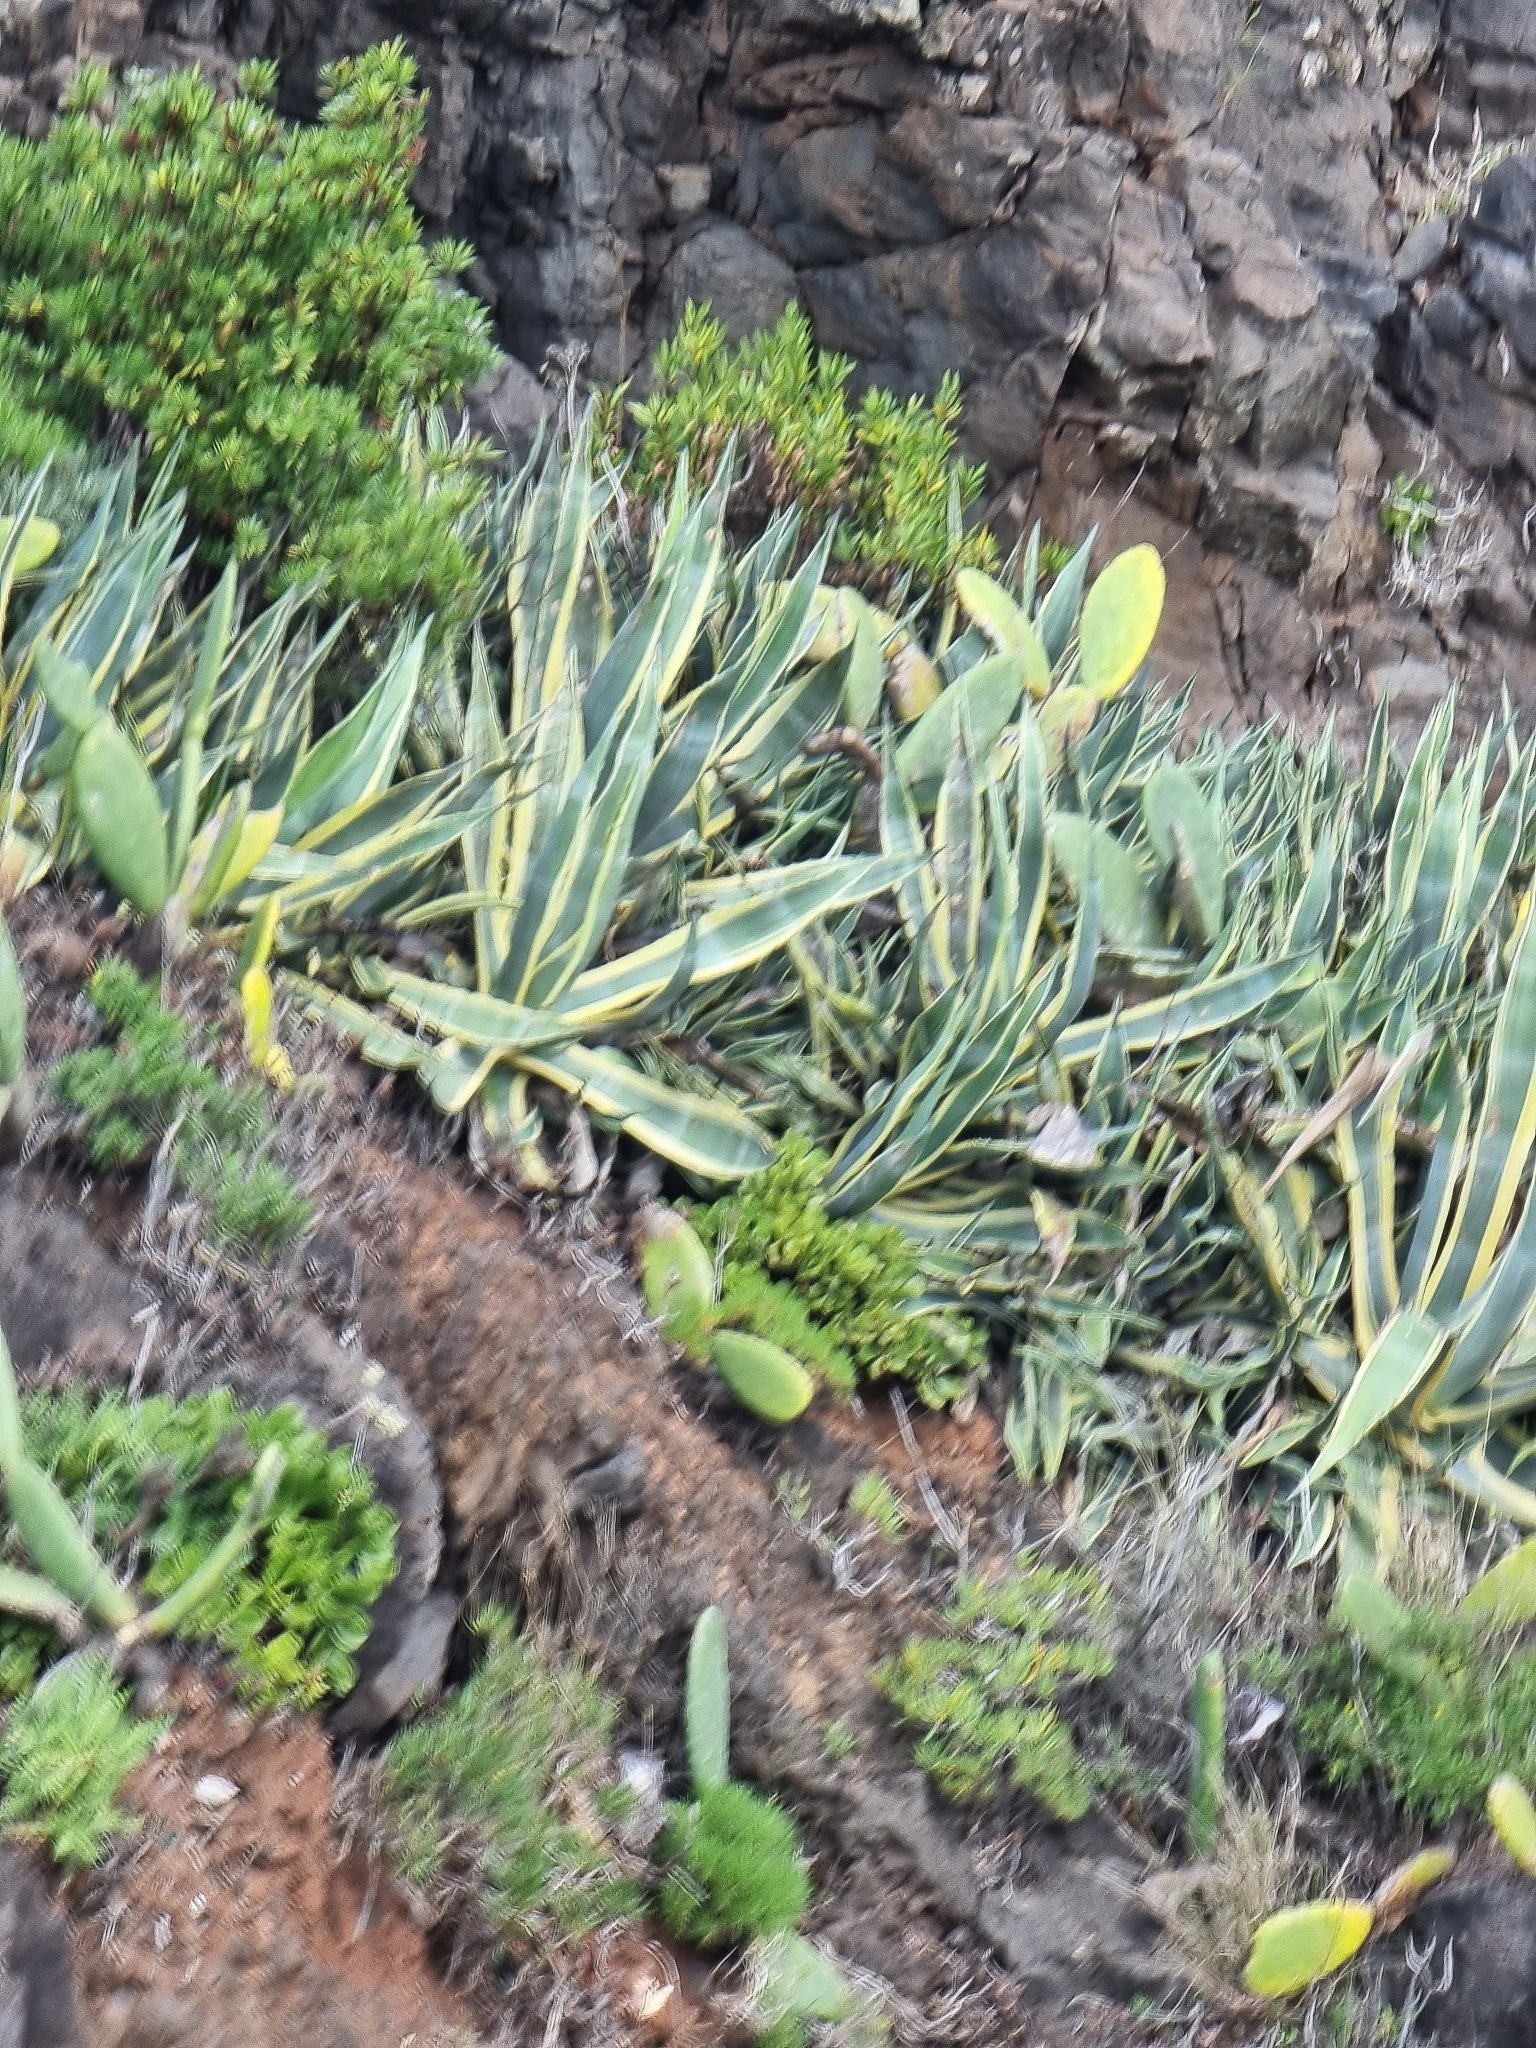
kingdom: Plantae
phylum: Tracheophyta
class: Liliopsida
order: Asparagales
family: Asparagaceae
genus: Agave
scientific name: Agave americana
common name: Centuryplant
